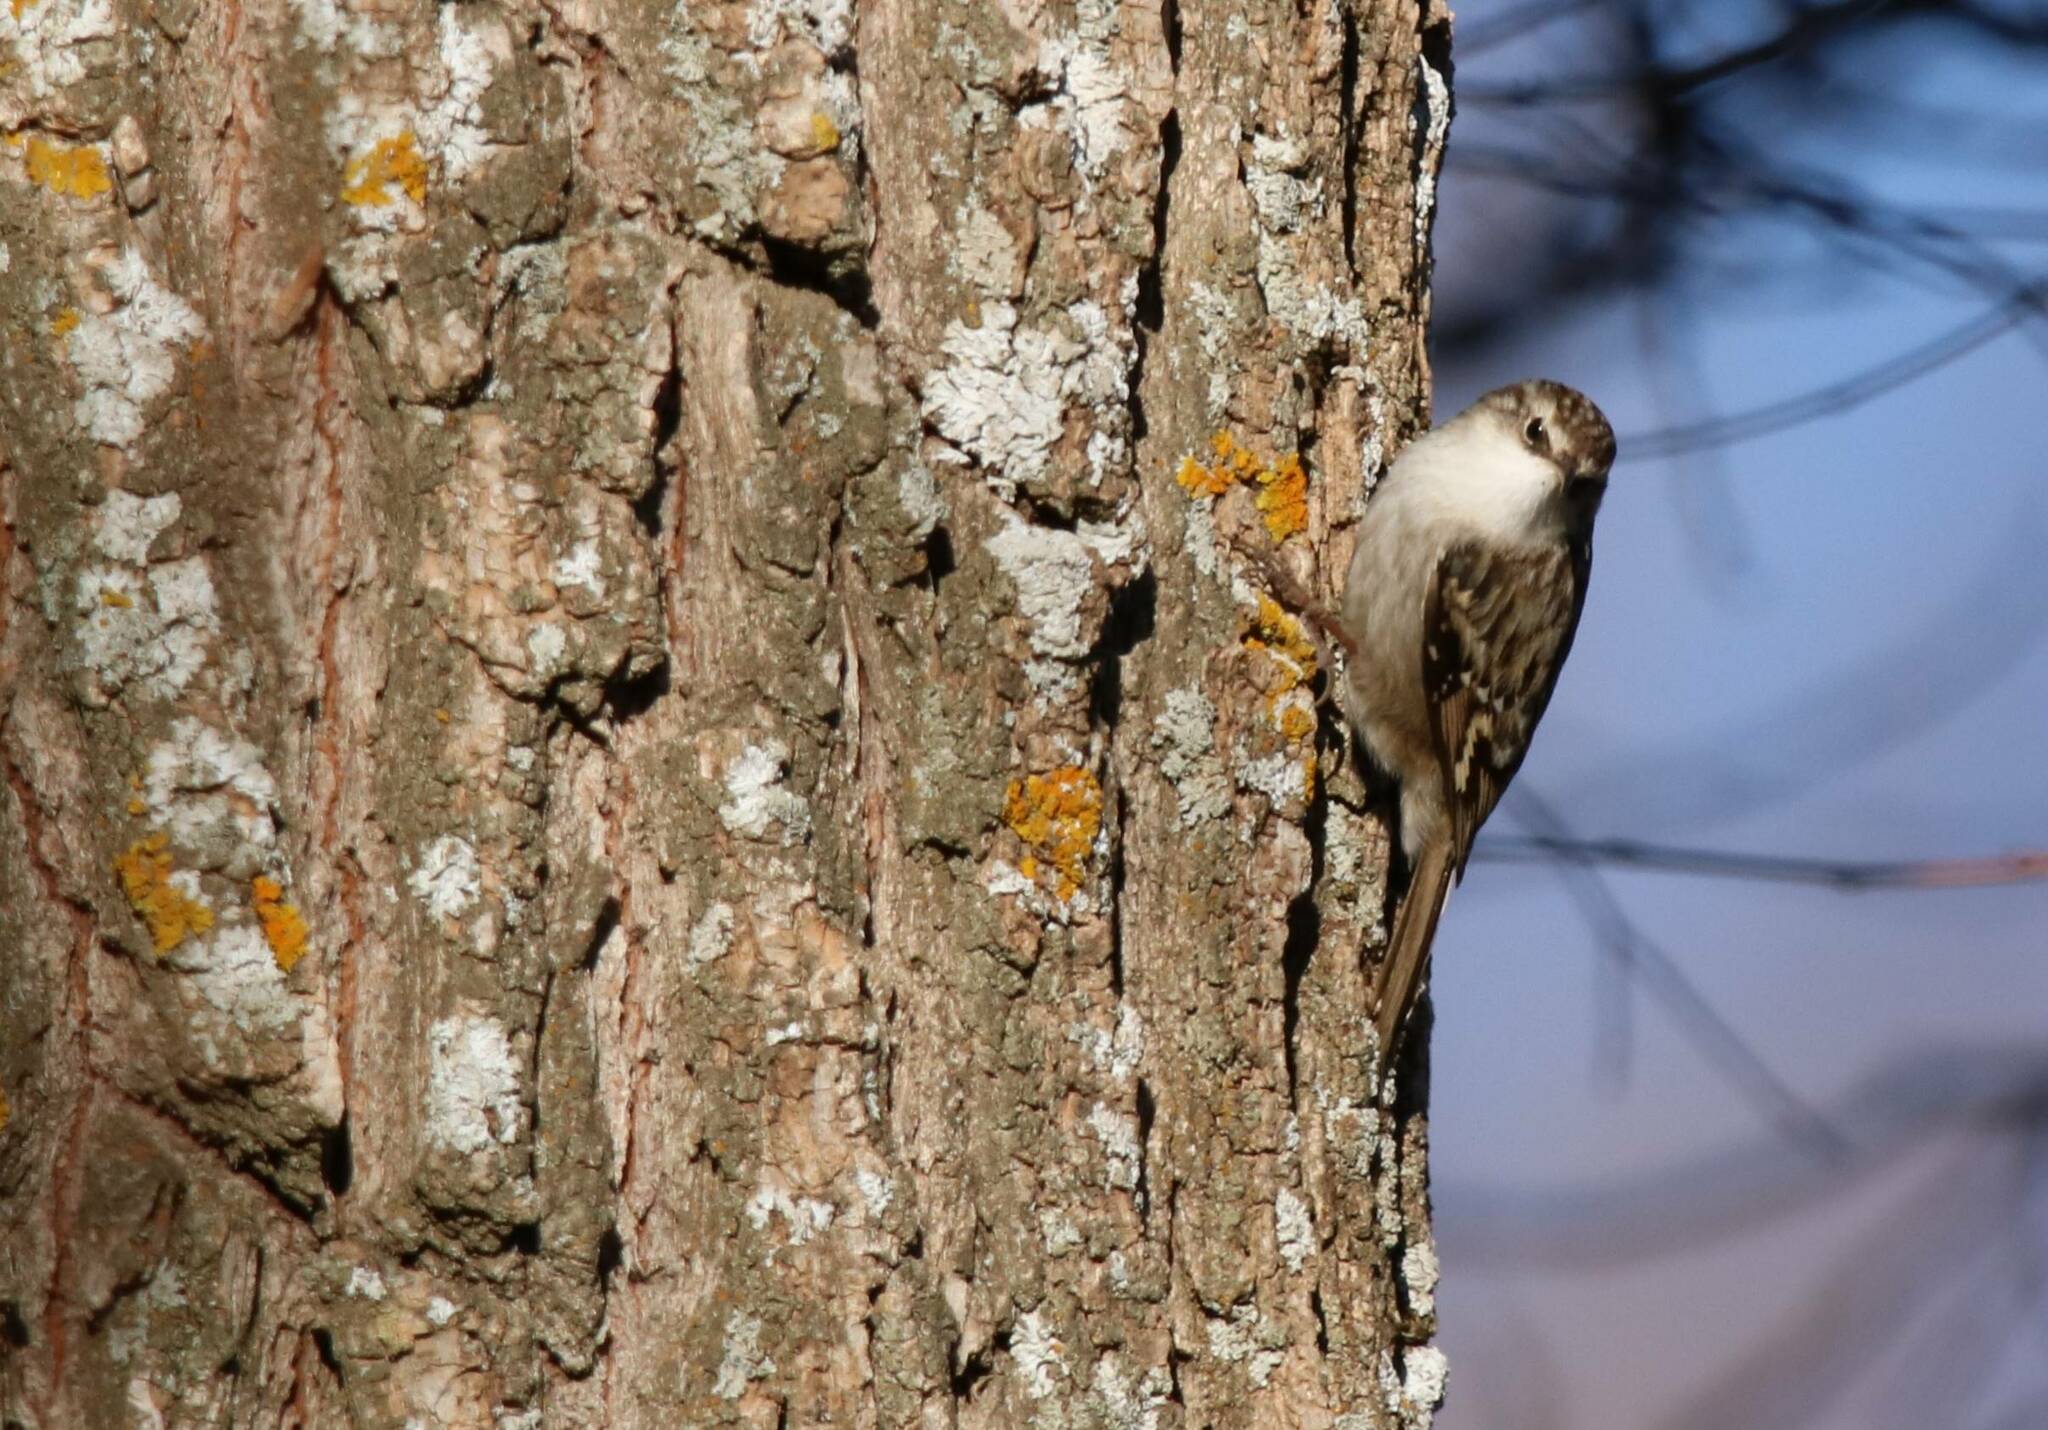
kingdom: Animalia
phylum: Chordata
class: Aves
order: Passeriformes
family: Certhiidae
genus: Certhia
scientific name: Certhia brachydactyla
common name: Short-toed treecreeper
